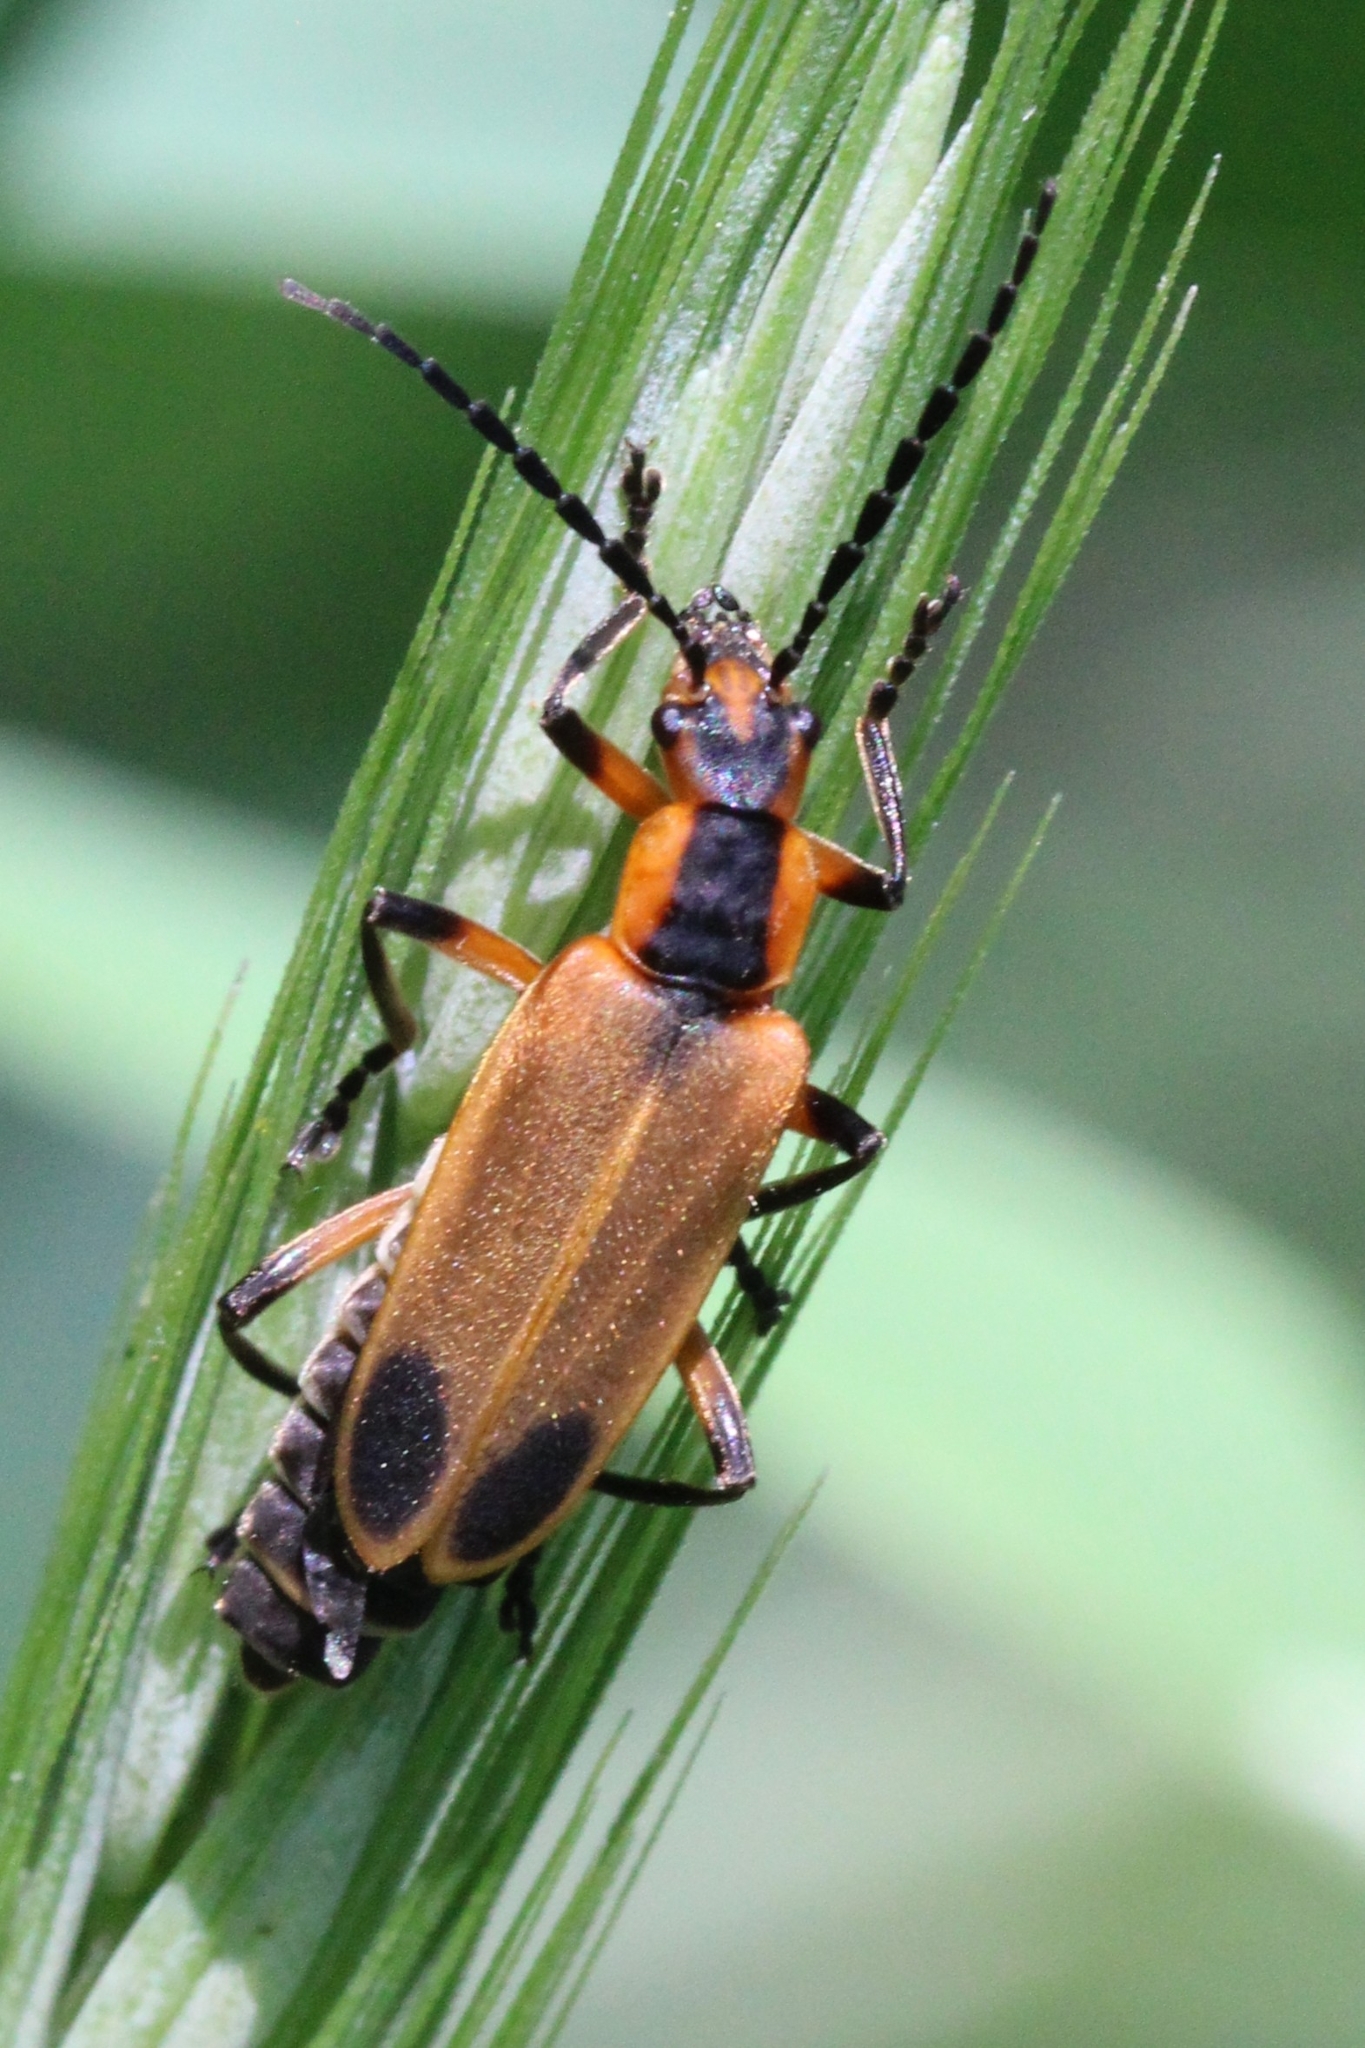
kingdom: Animalia
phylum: Arthropoda
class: Insecta
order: Coleoptera
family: Cantharidae
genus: Chauliognathus
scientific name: Chauliognathus marginatus
